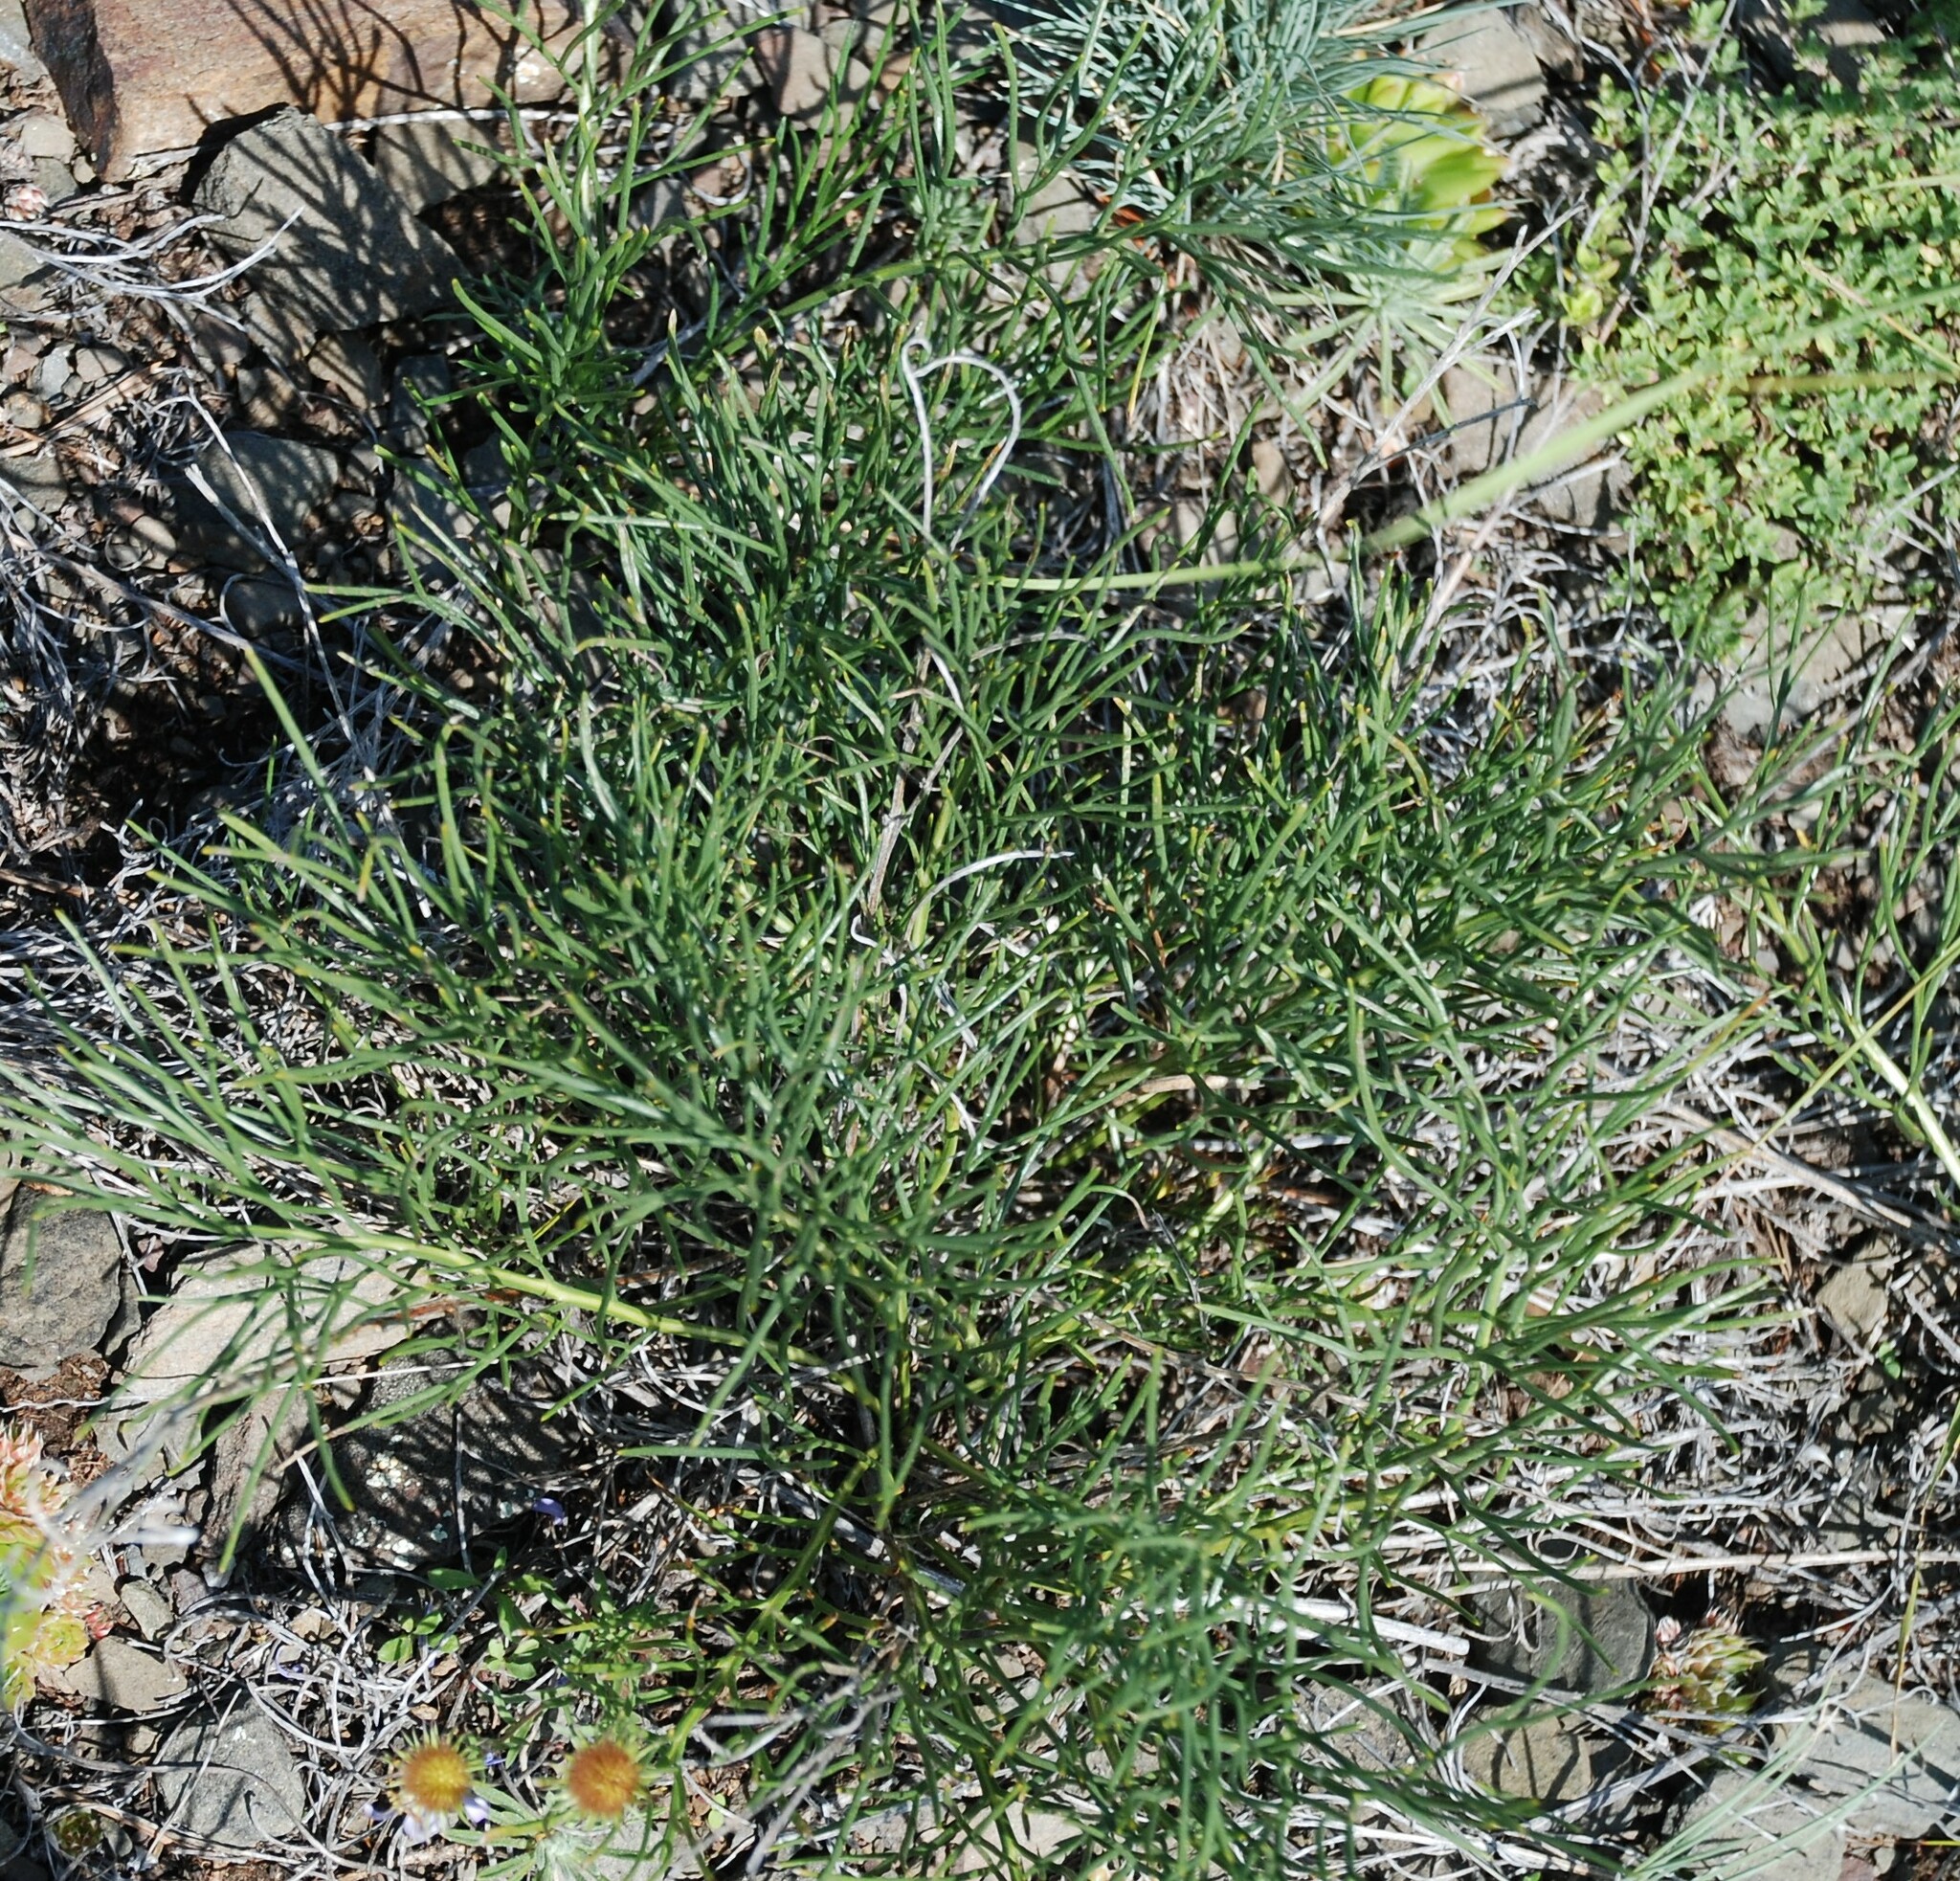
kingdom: Plantae
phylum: Tracheophyta
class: Magnoliopsida
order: Asterales
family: Asteraceae
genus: Filifolium
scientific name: Filifolium sibiricum
